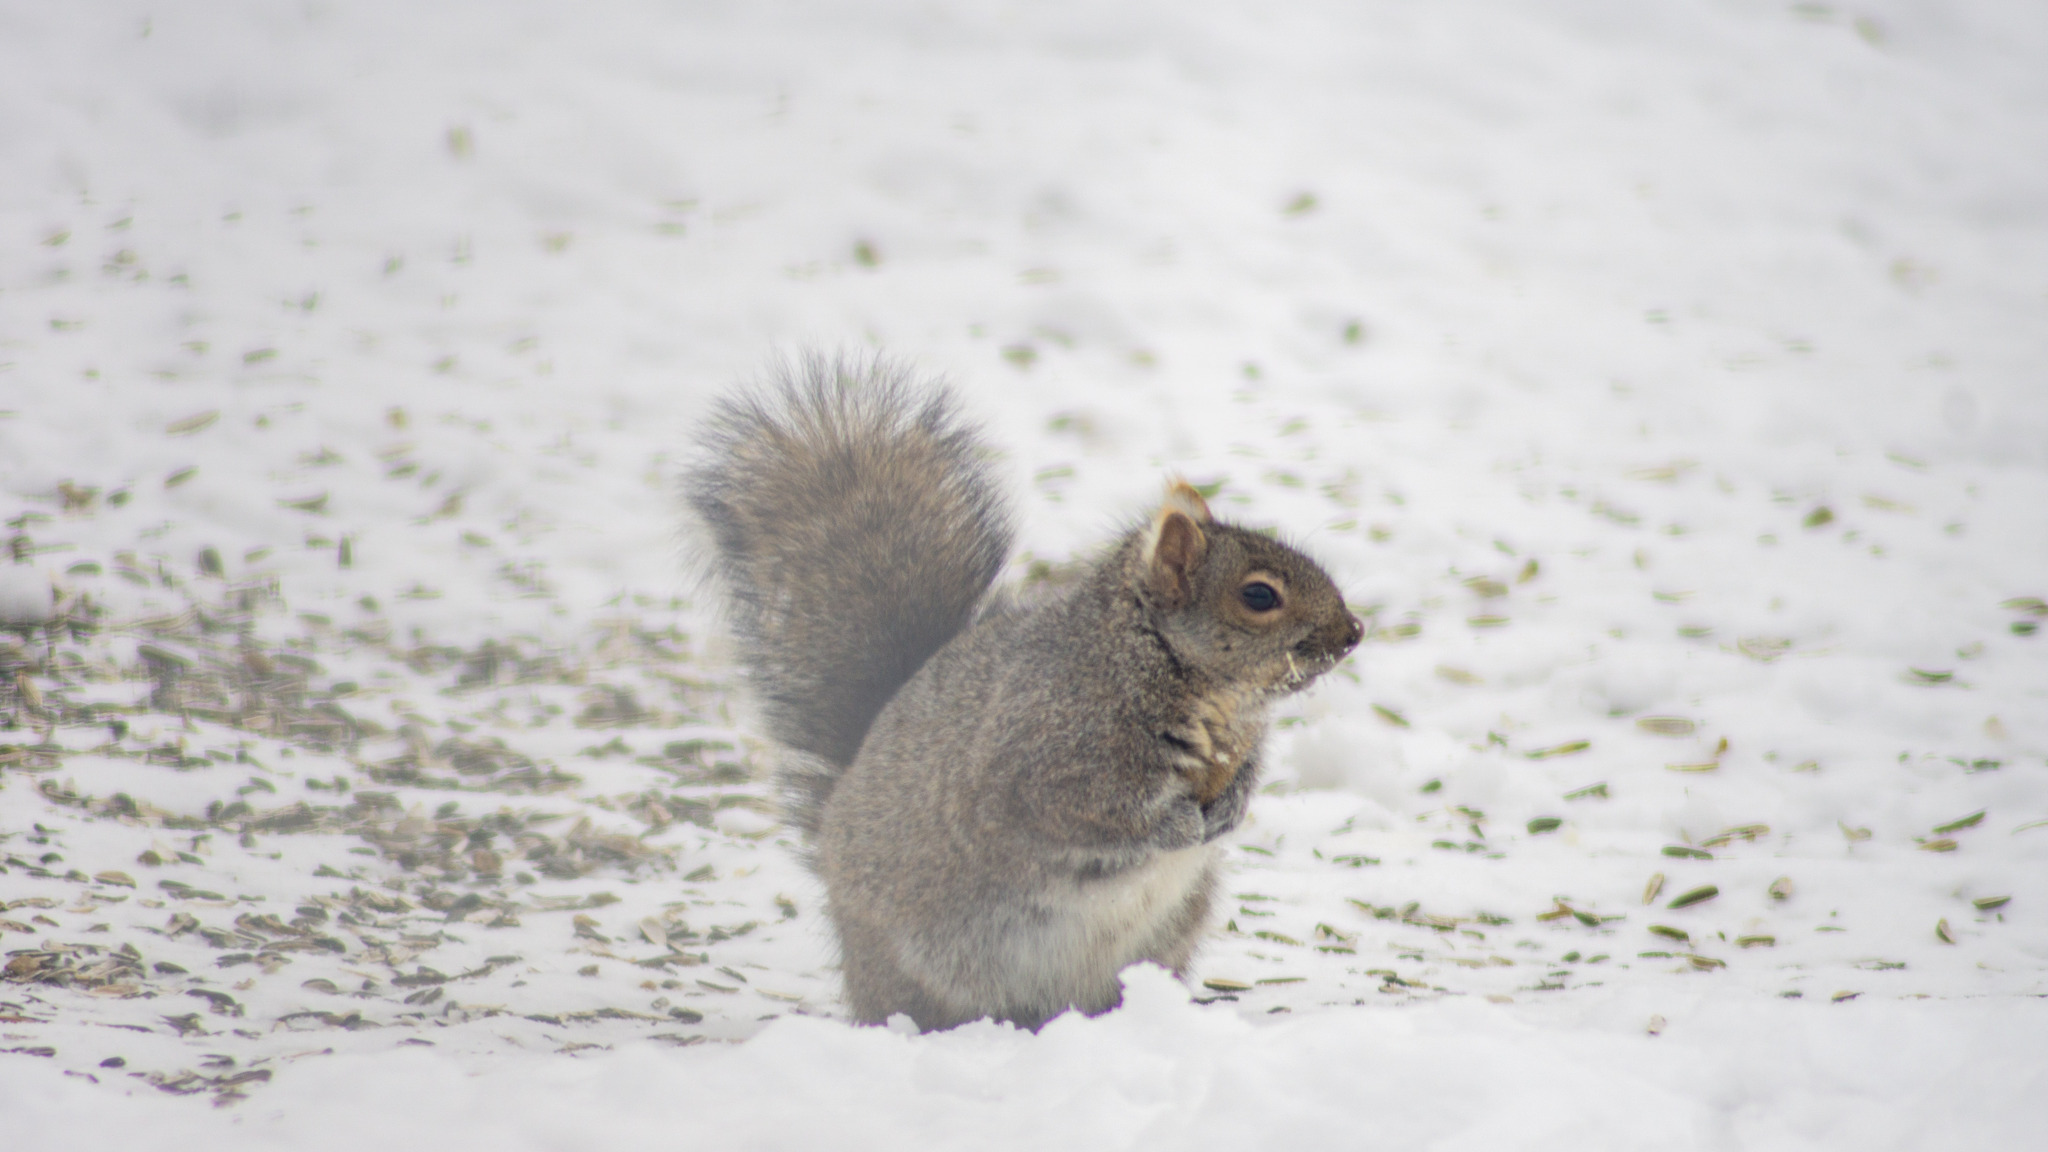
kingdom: Animalia
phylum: Chordata
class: Mammalia
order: Rodentia
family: Sciuridae
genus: Sciurus
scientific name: Sciurus carolinensis
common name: Eastern gray squirrel
